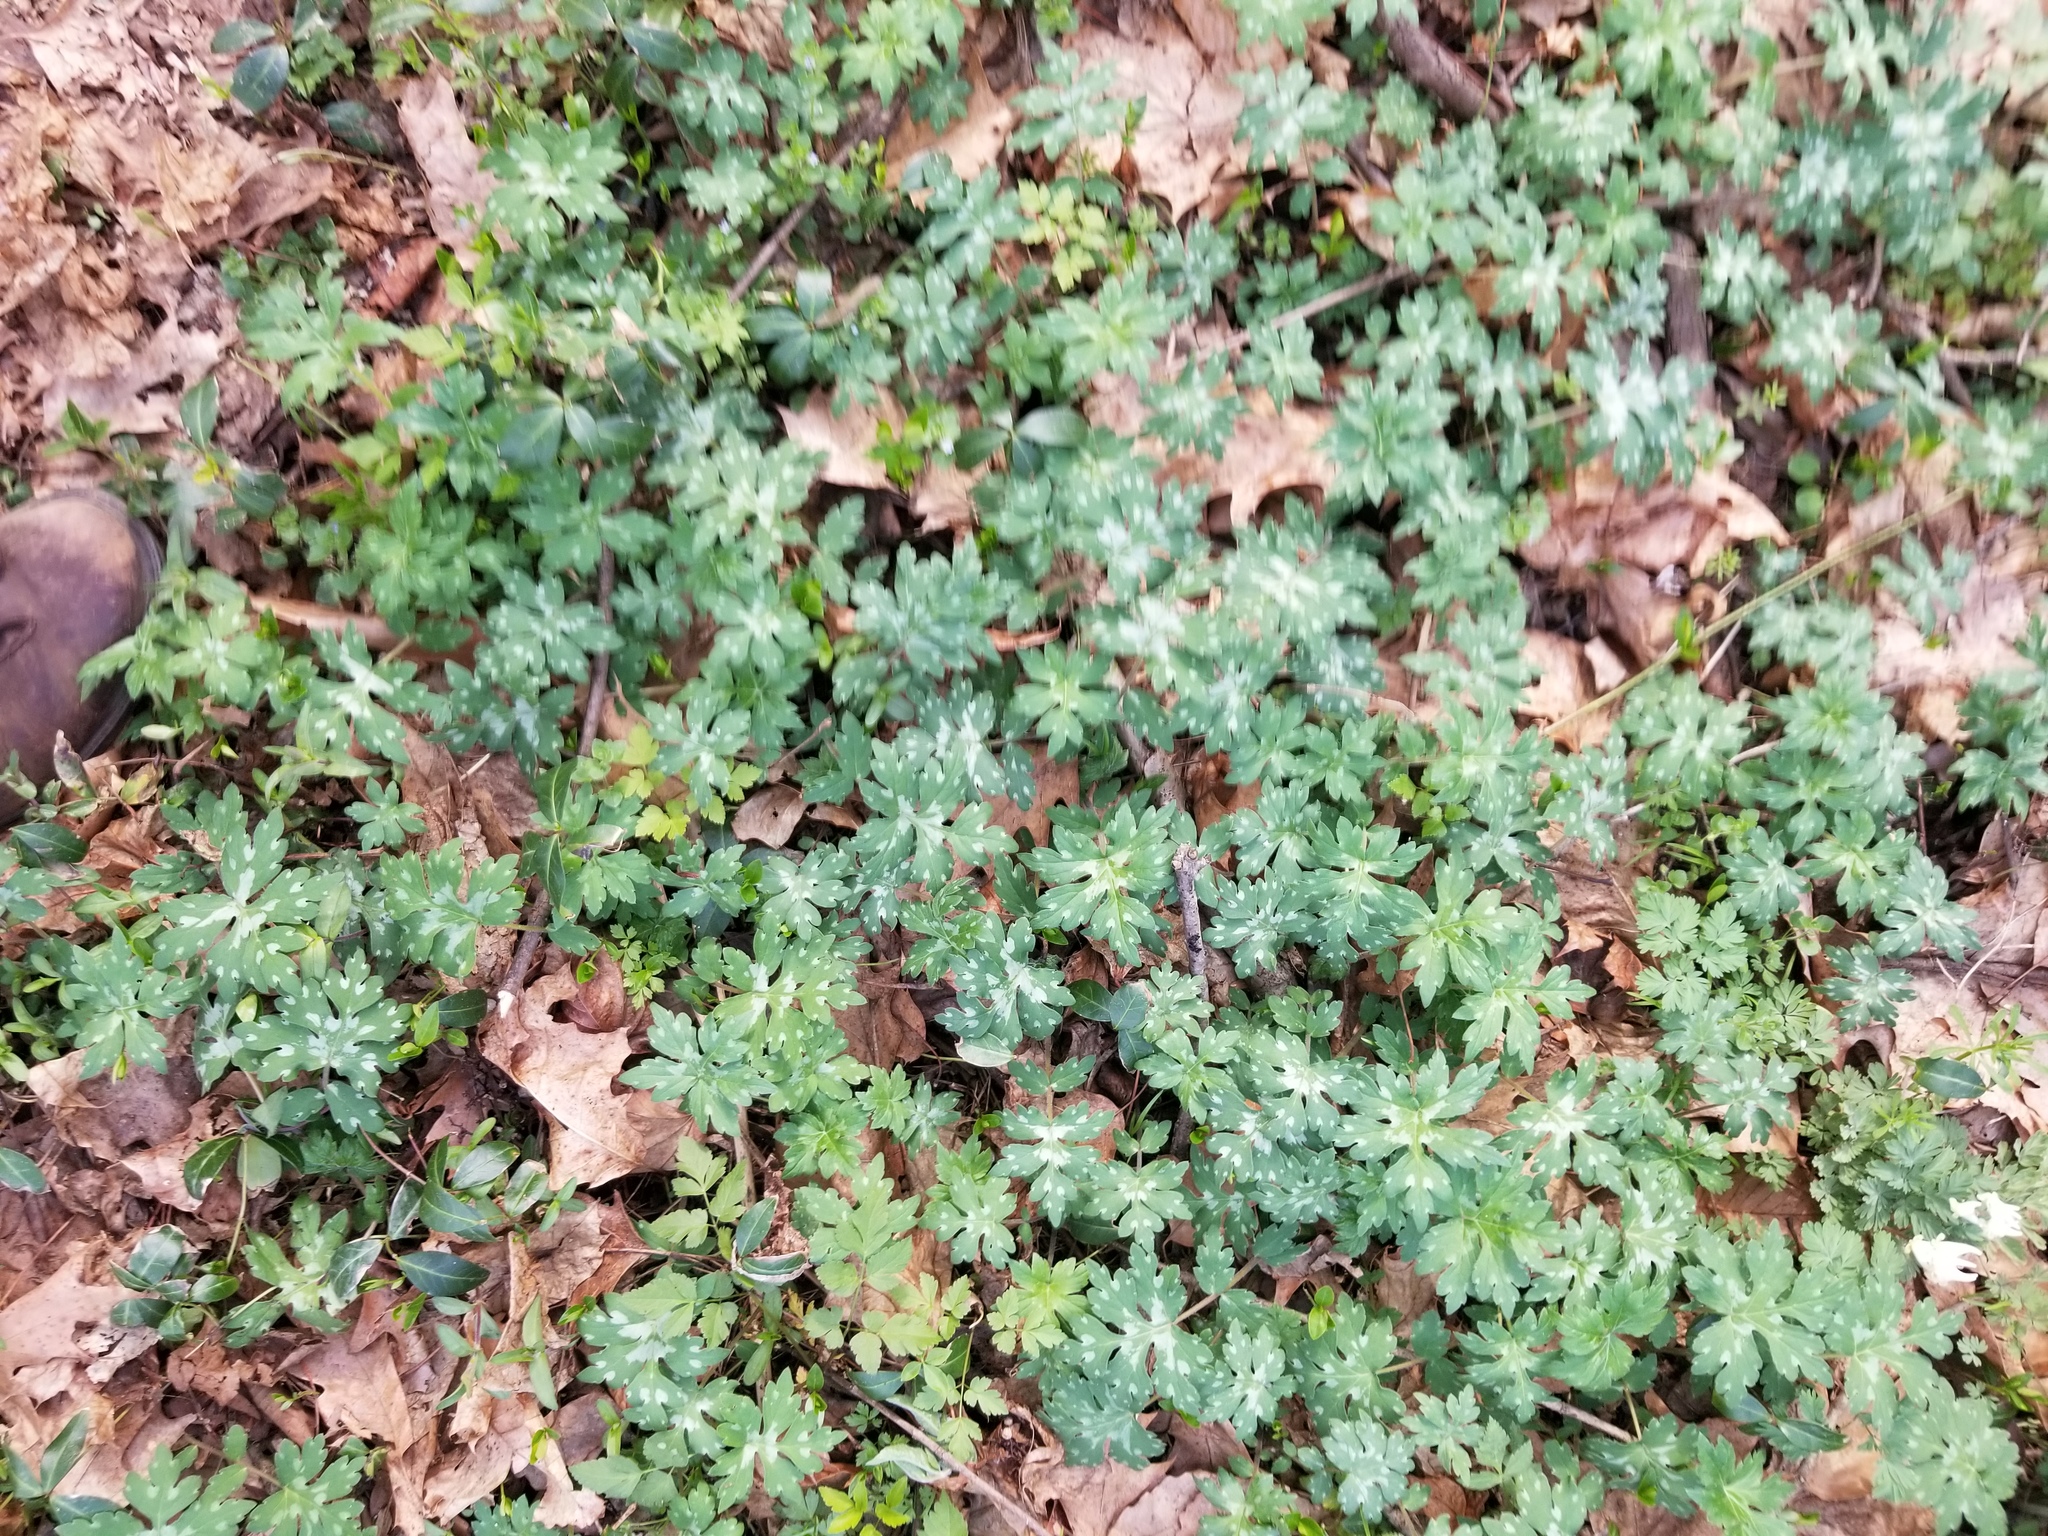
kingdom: Plantae
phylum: Tracheophyta
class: Magnoliopsida
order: Boraginales
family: Hydrophyllaceae
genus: Hydrophyllum
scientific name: Hydrophyllum canadense
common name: Canada waterleaf
